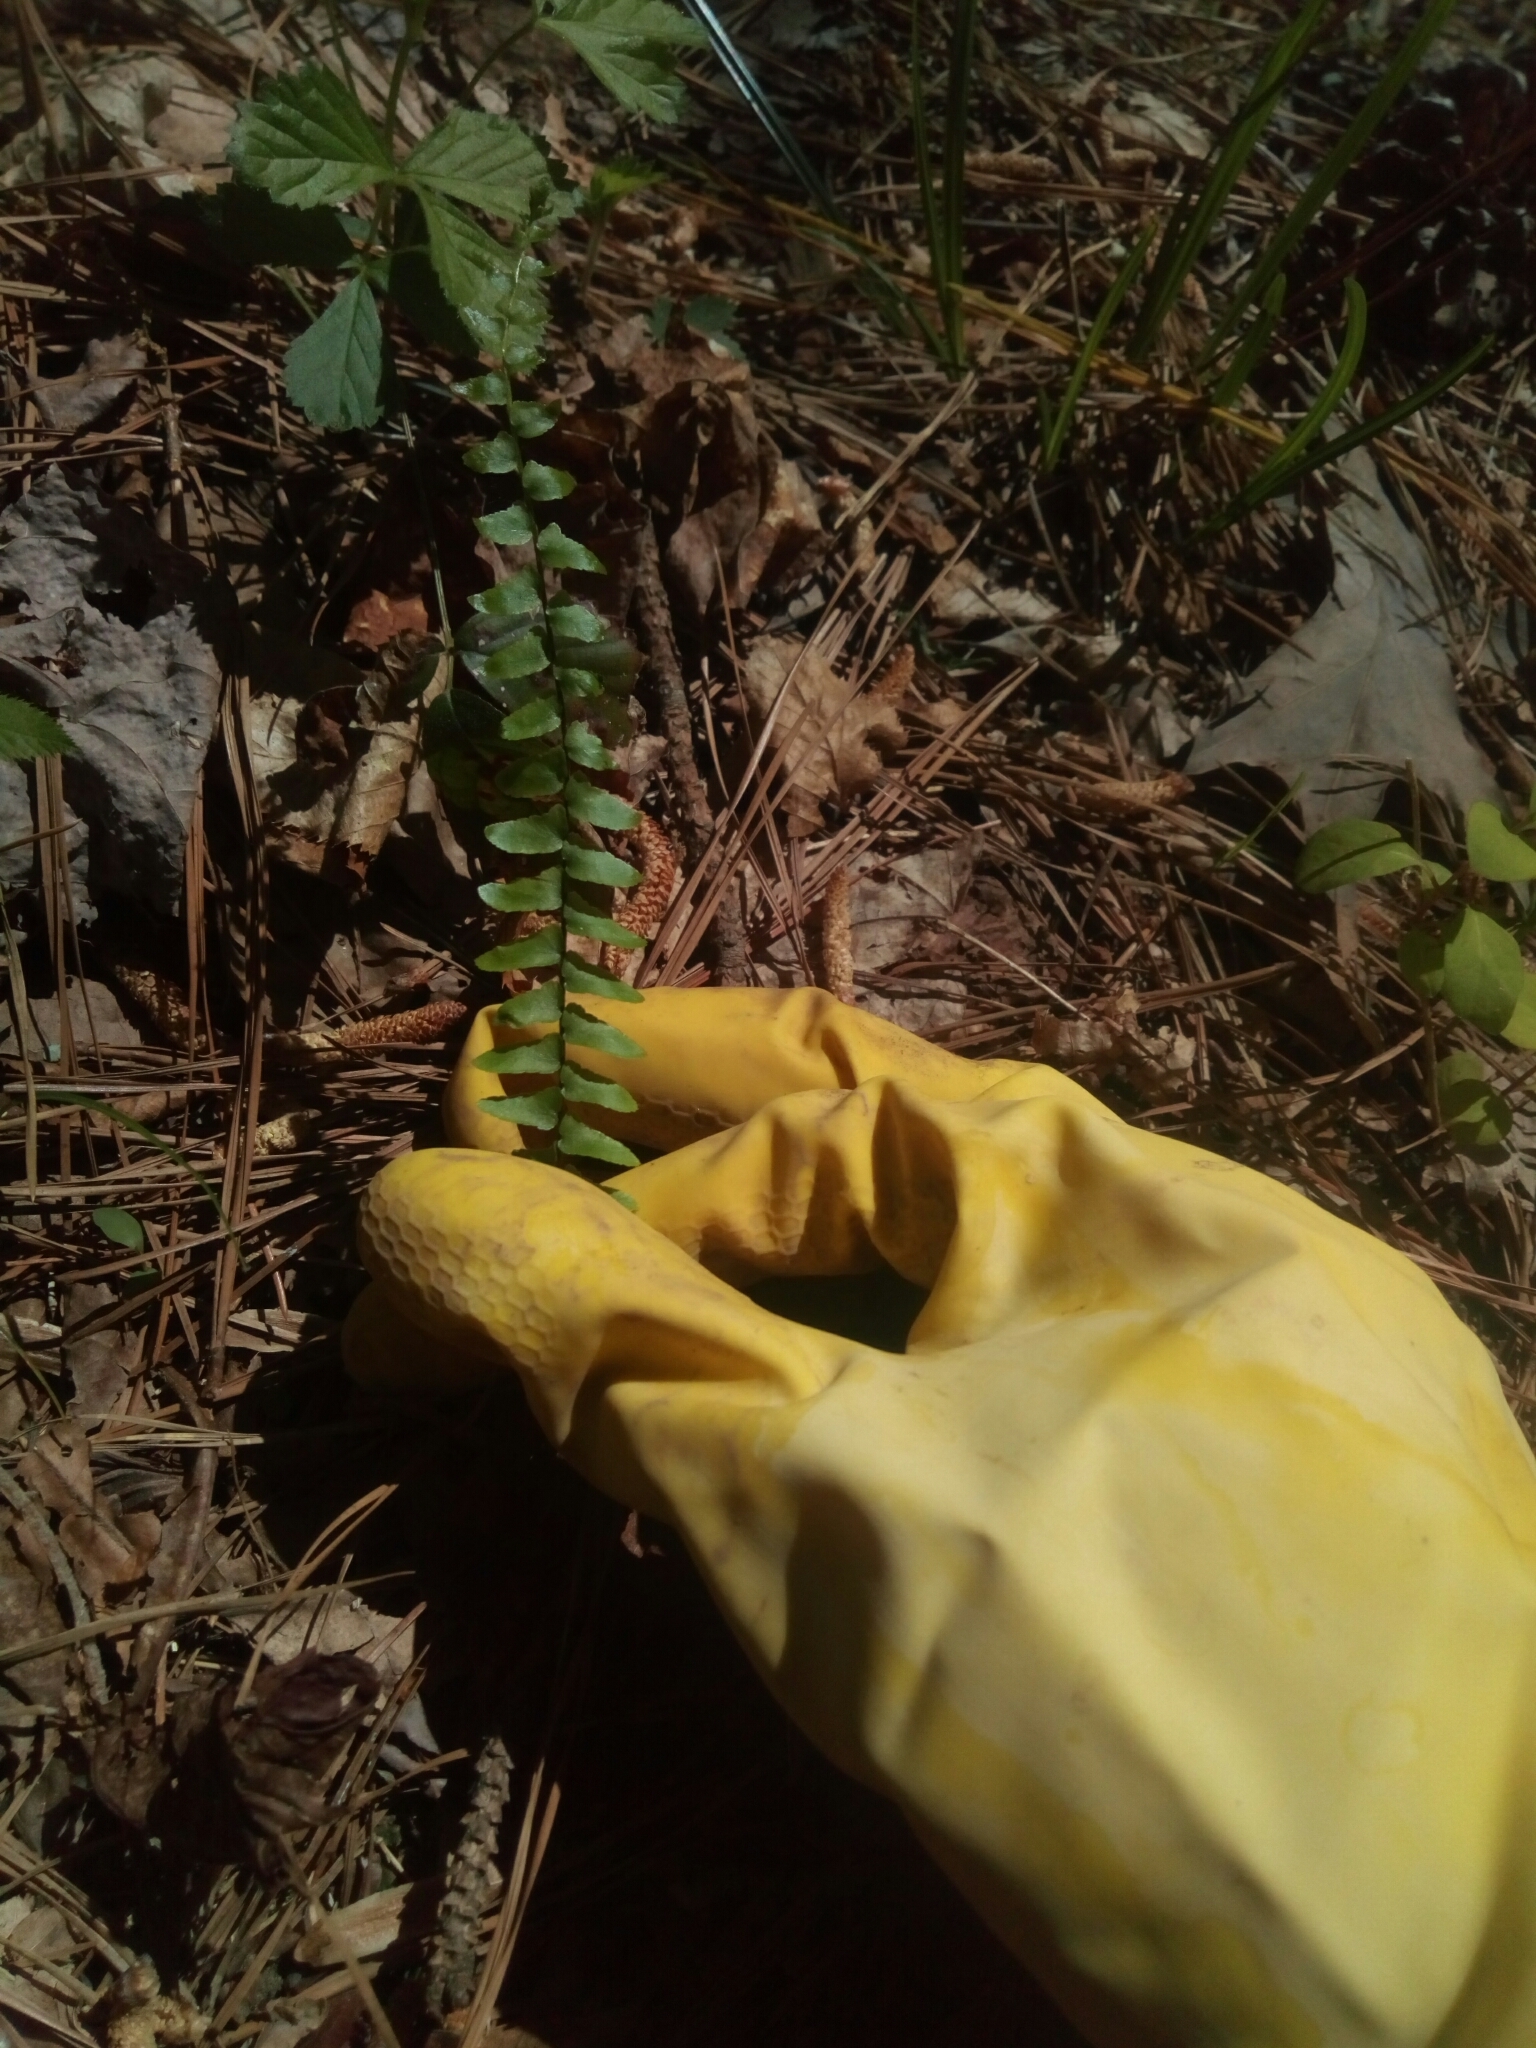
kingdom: Plantae
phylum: Tracheophyta
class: Polypodiopsida
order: Polypodiales
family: Aspleniaceae
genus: Asplenium
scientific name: Asplenium platyneuron
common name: Ebony spleenwort
